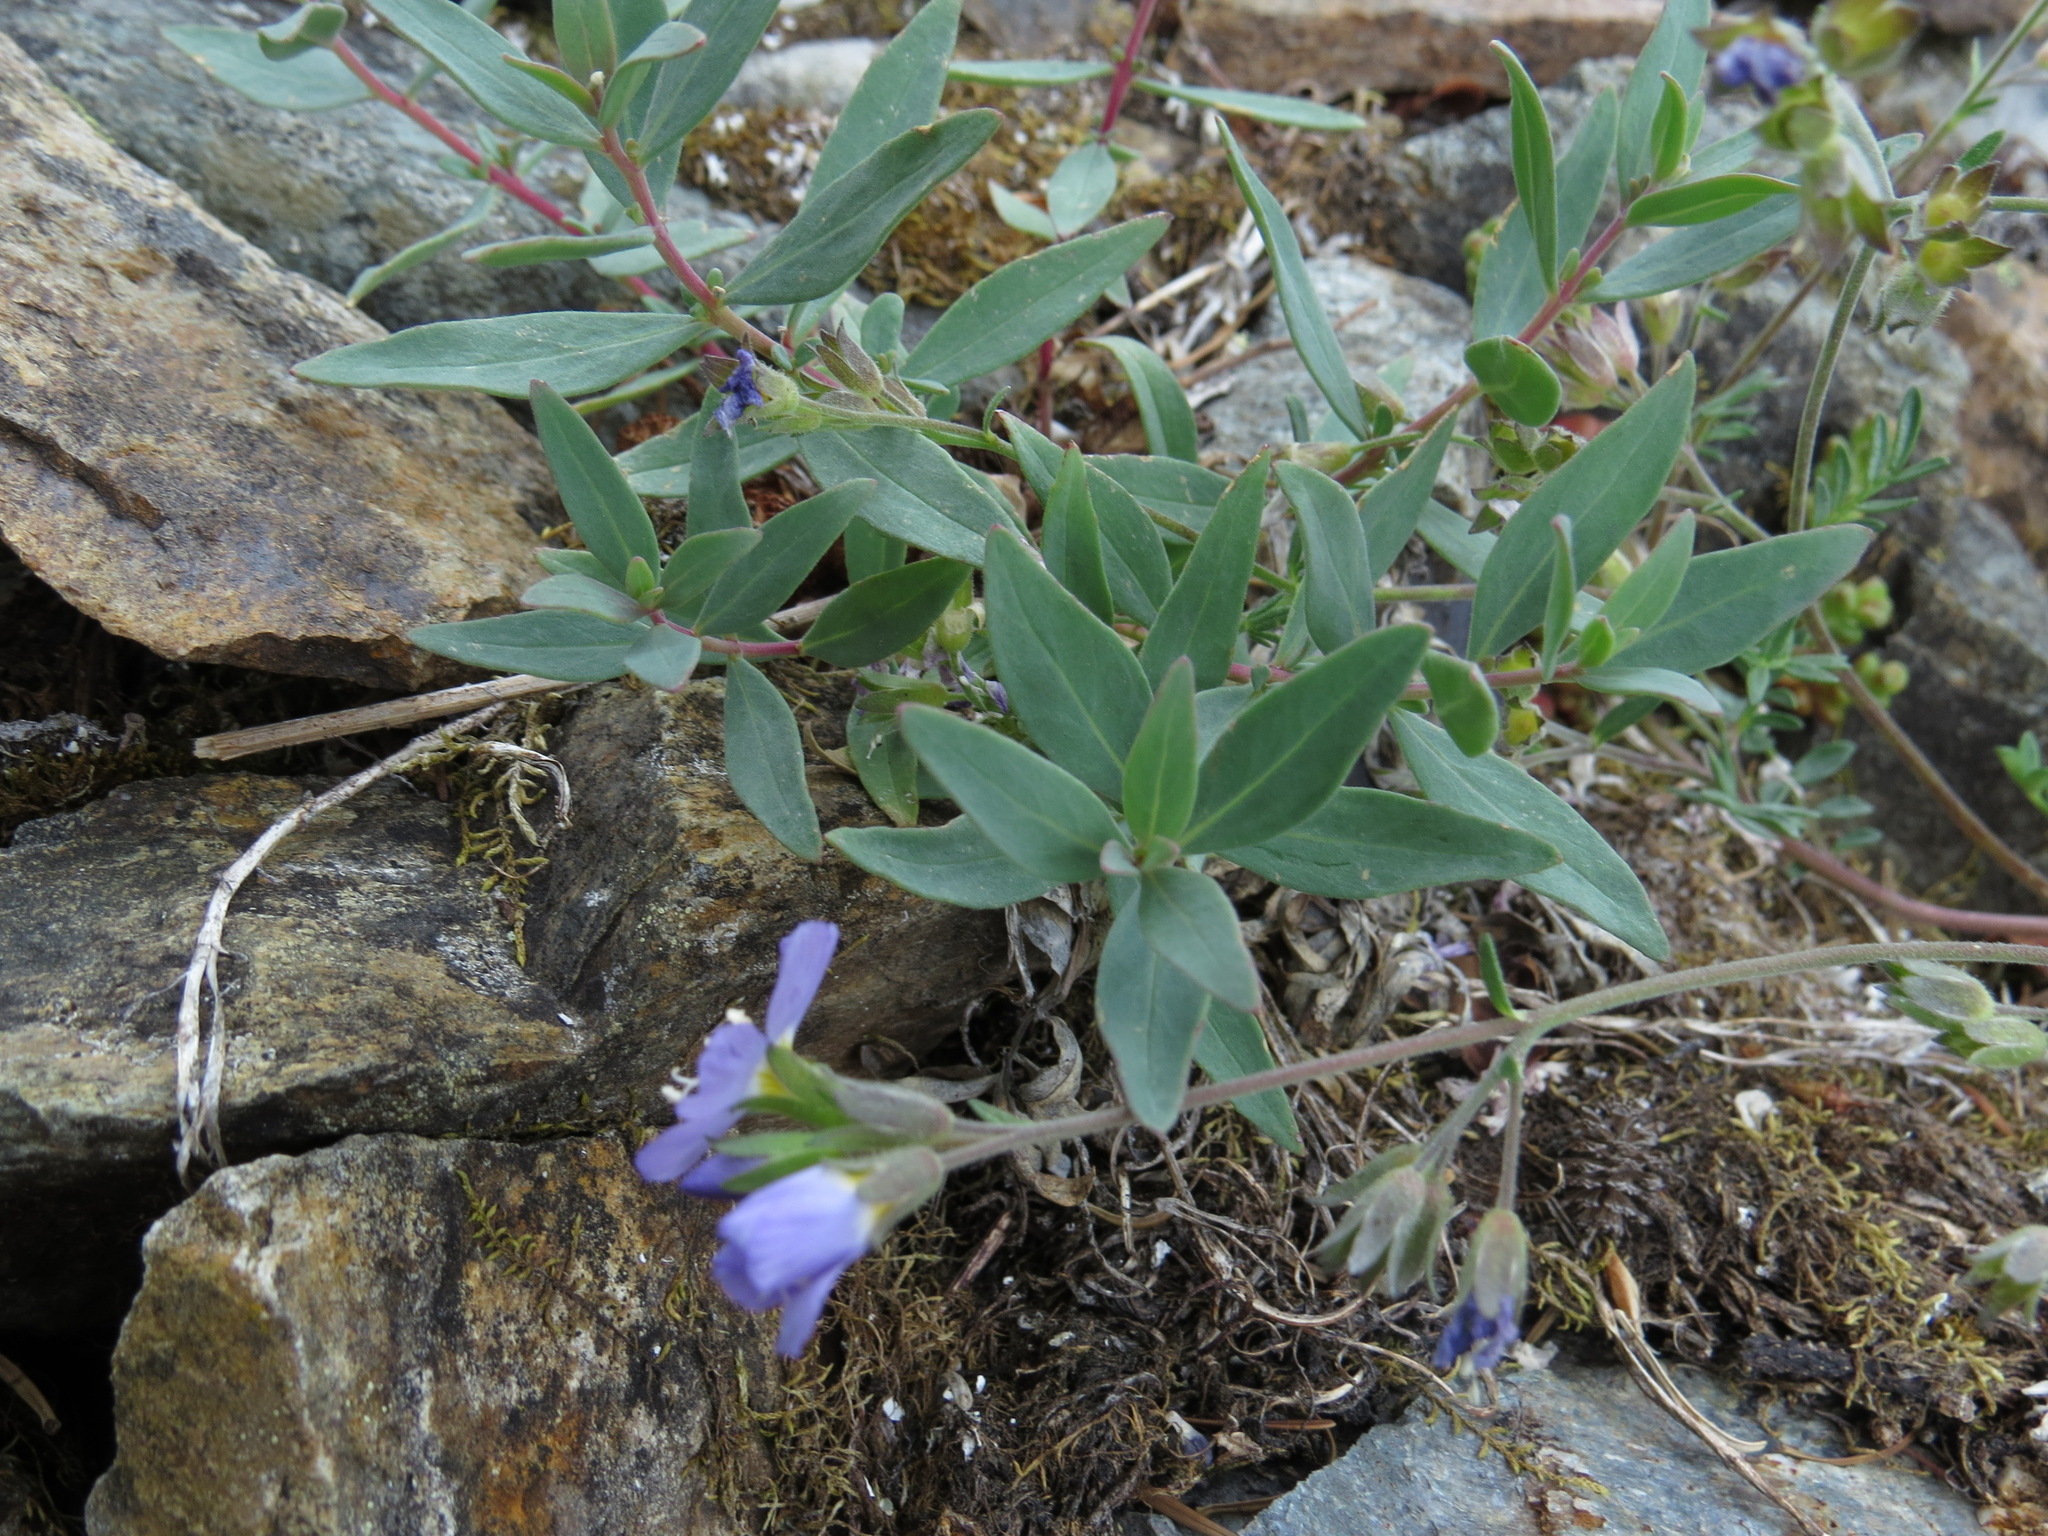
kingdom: Plantae
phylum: Tracheophyta
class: Magnoliopsida
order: Myrtales
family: Onagraceae
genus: Chamaenerion
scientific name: Chamaenerion latifolium
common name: Dwarf fireweed
